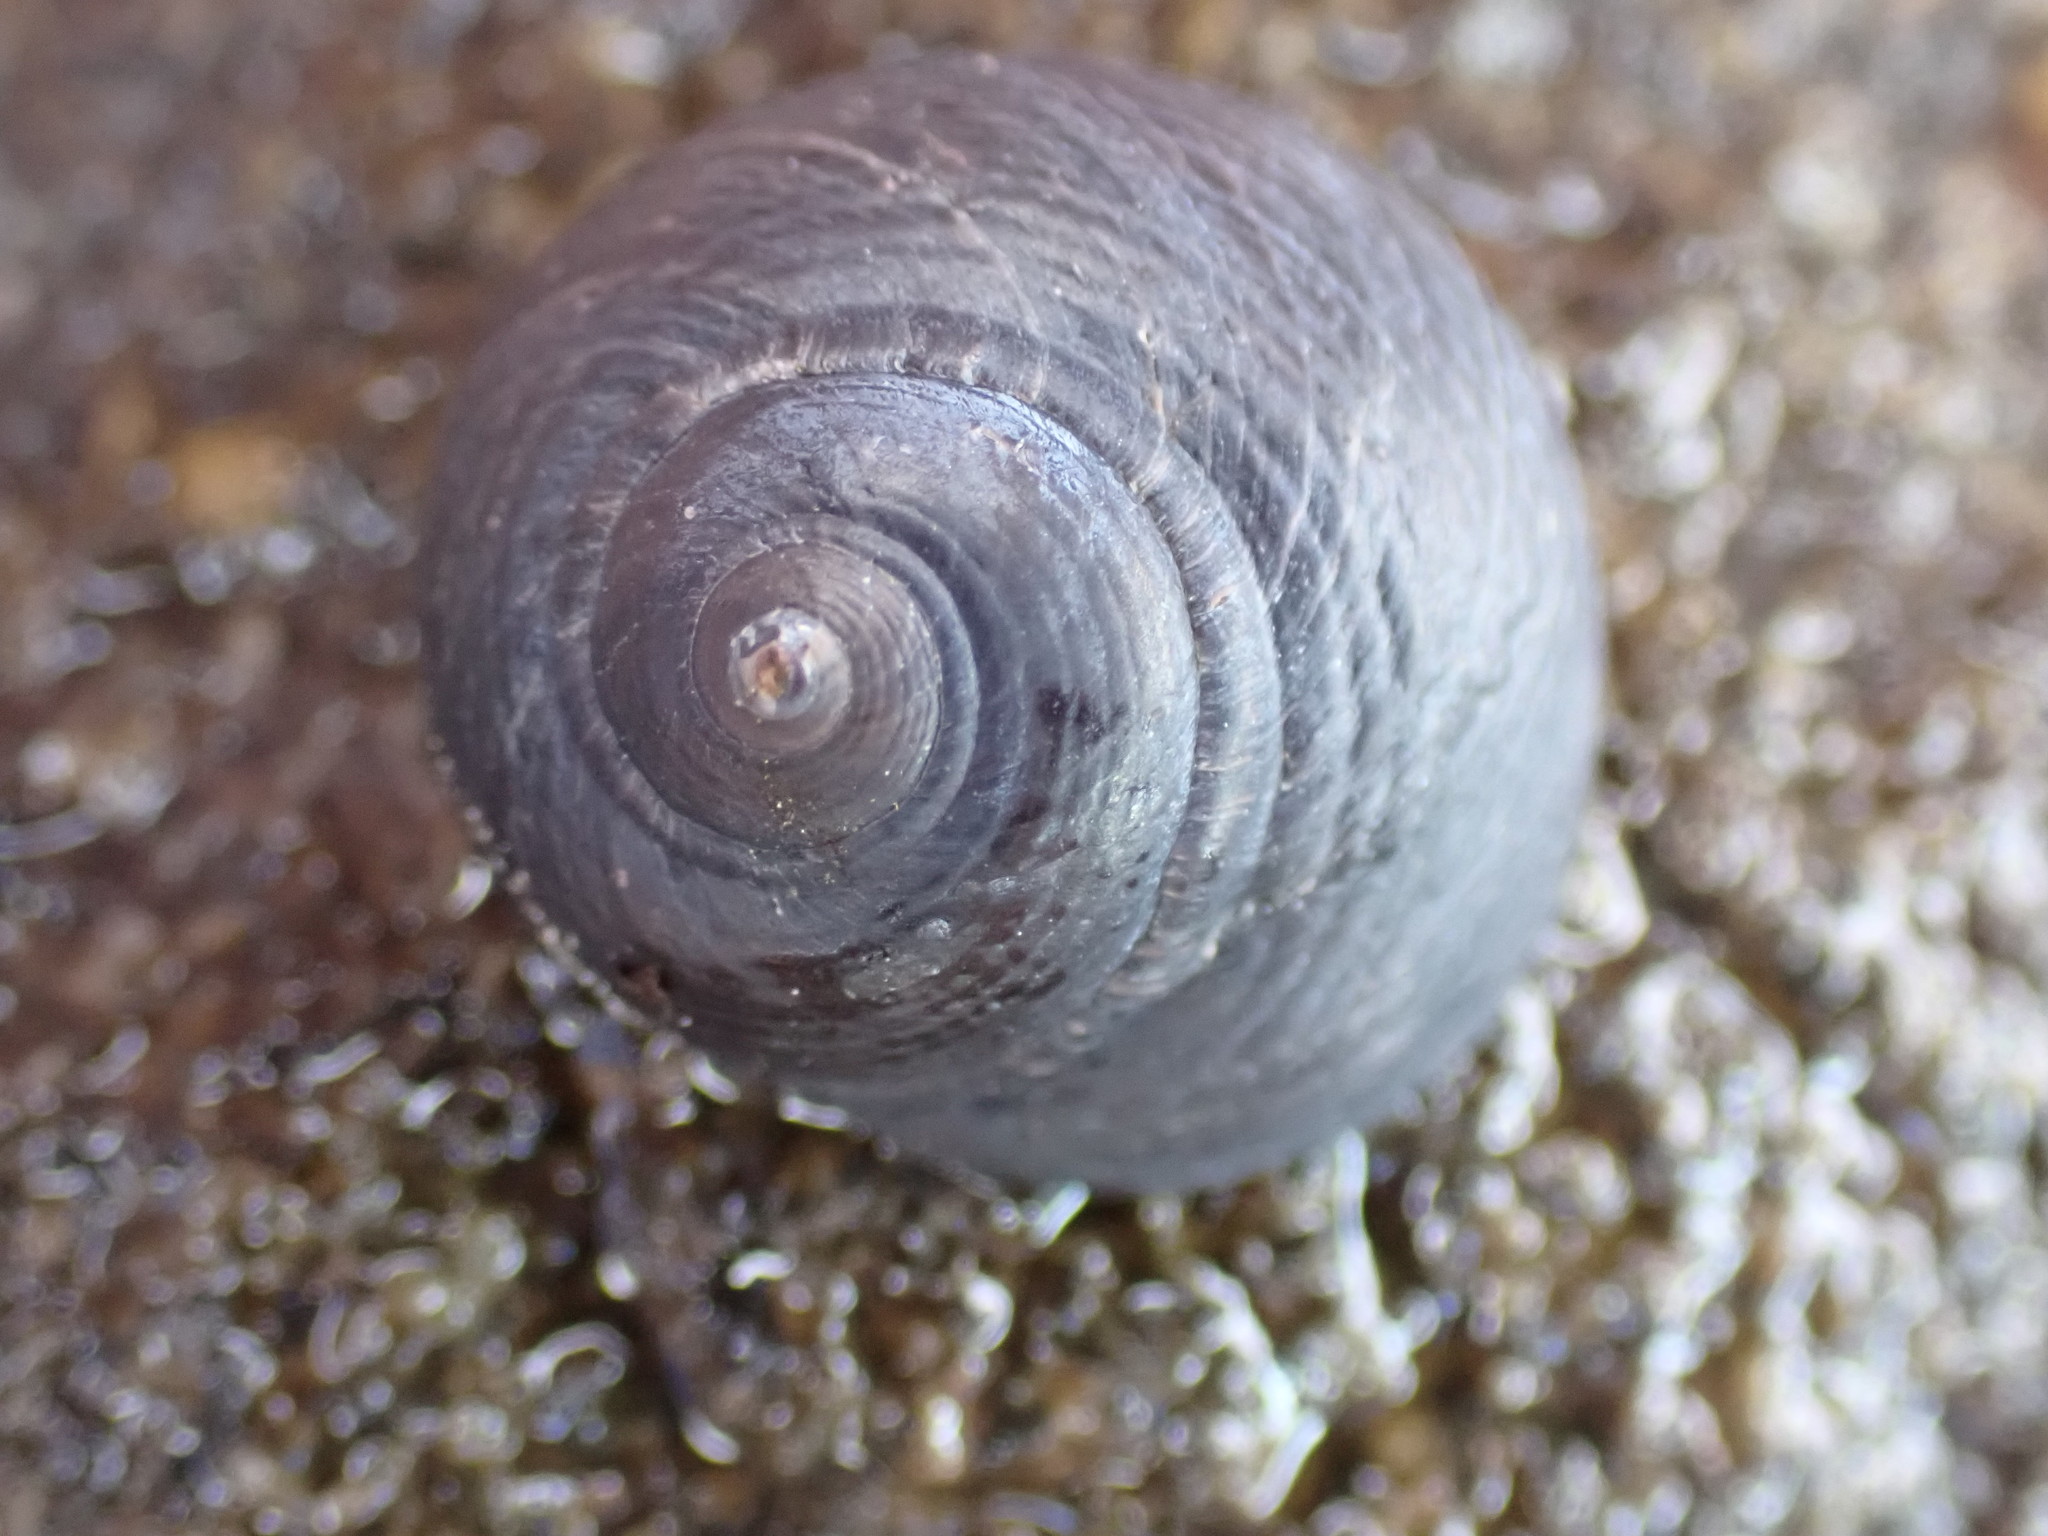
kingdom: Animalia
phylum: Mollusca
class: Gastropoda
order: Trochida
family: Trochidae
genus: Diloma
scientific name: Diloma nigerrimum
